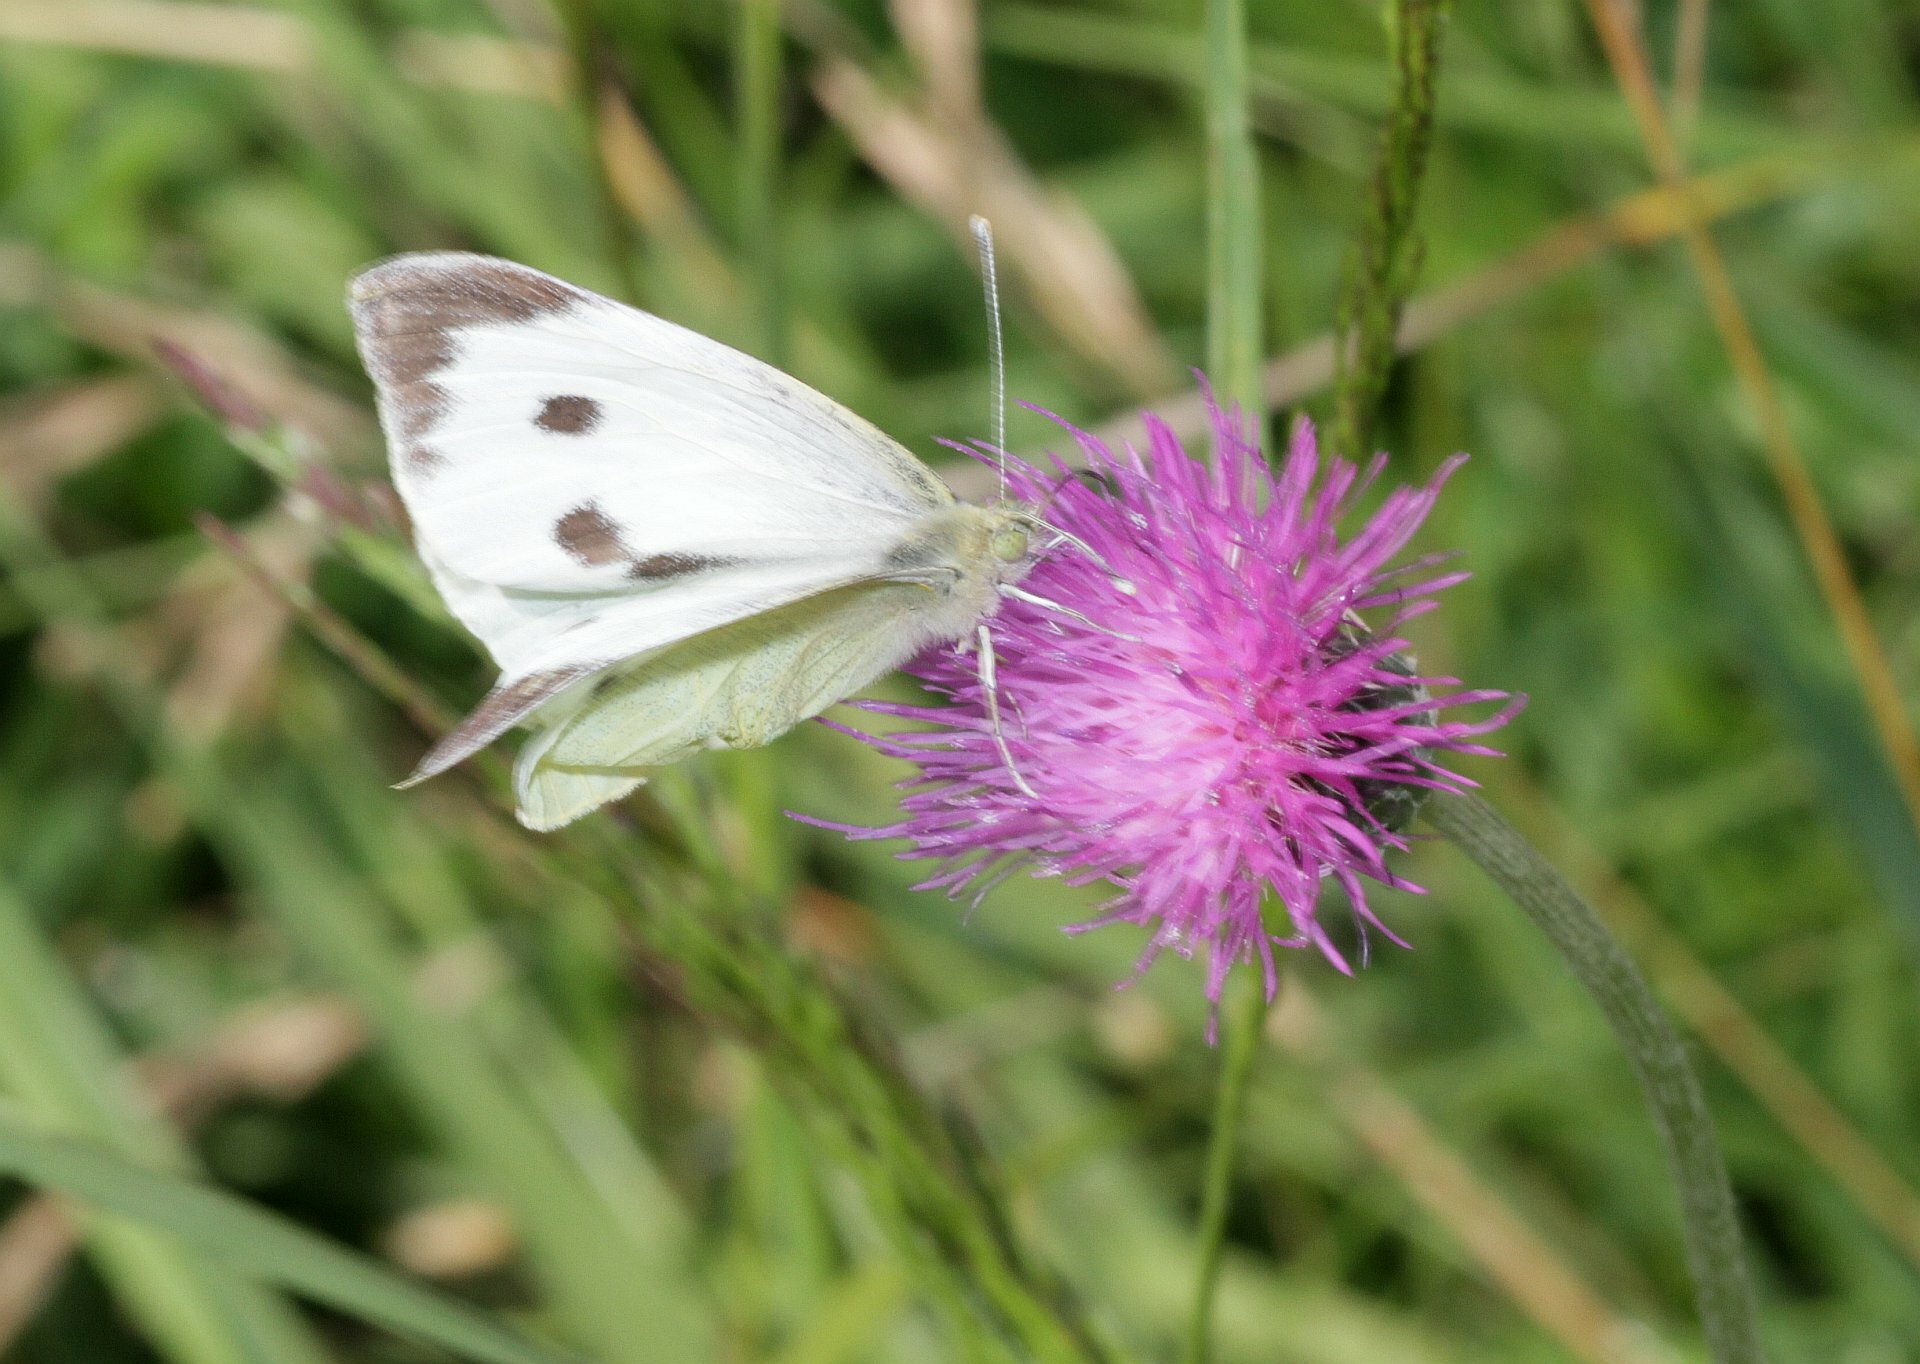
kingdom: Animalia
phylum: Arthropoda
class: Insecta
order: Lepidoptera
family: Pieridae
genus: Pieris
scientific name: Pieris brassicae
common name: Large white
